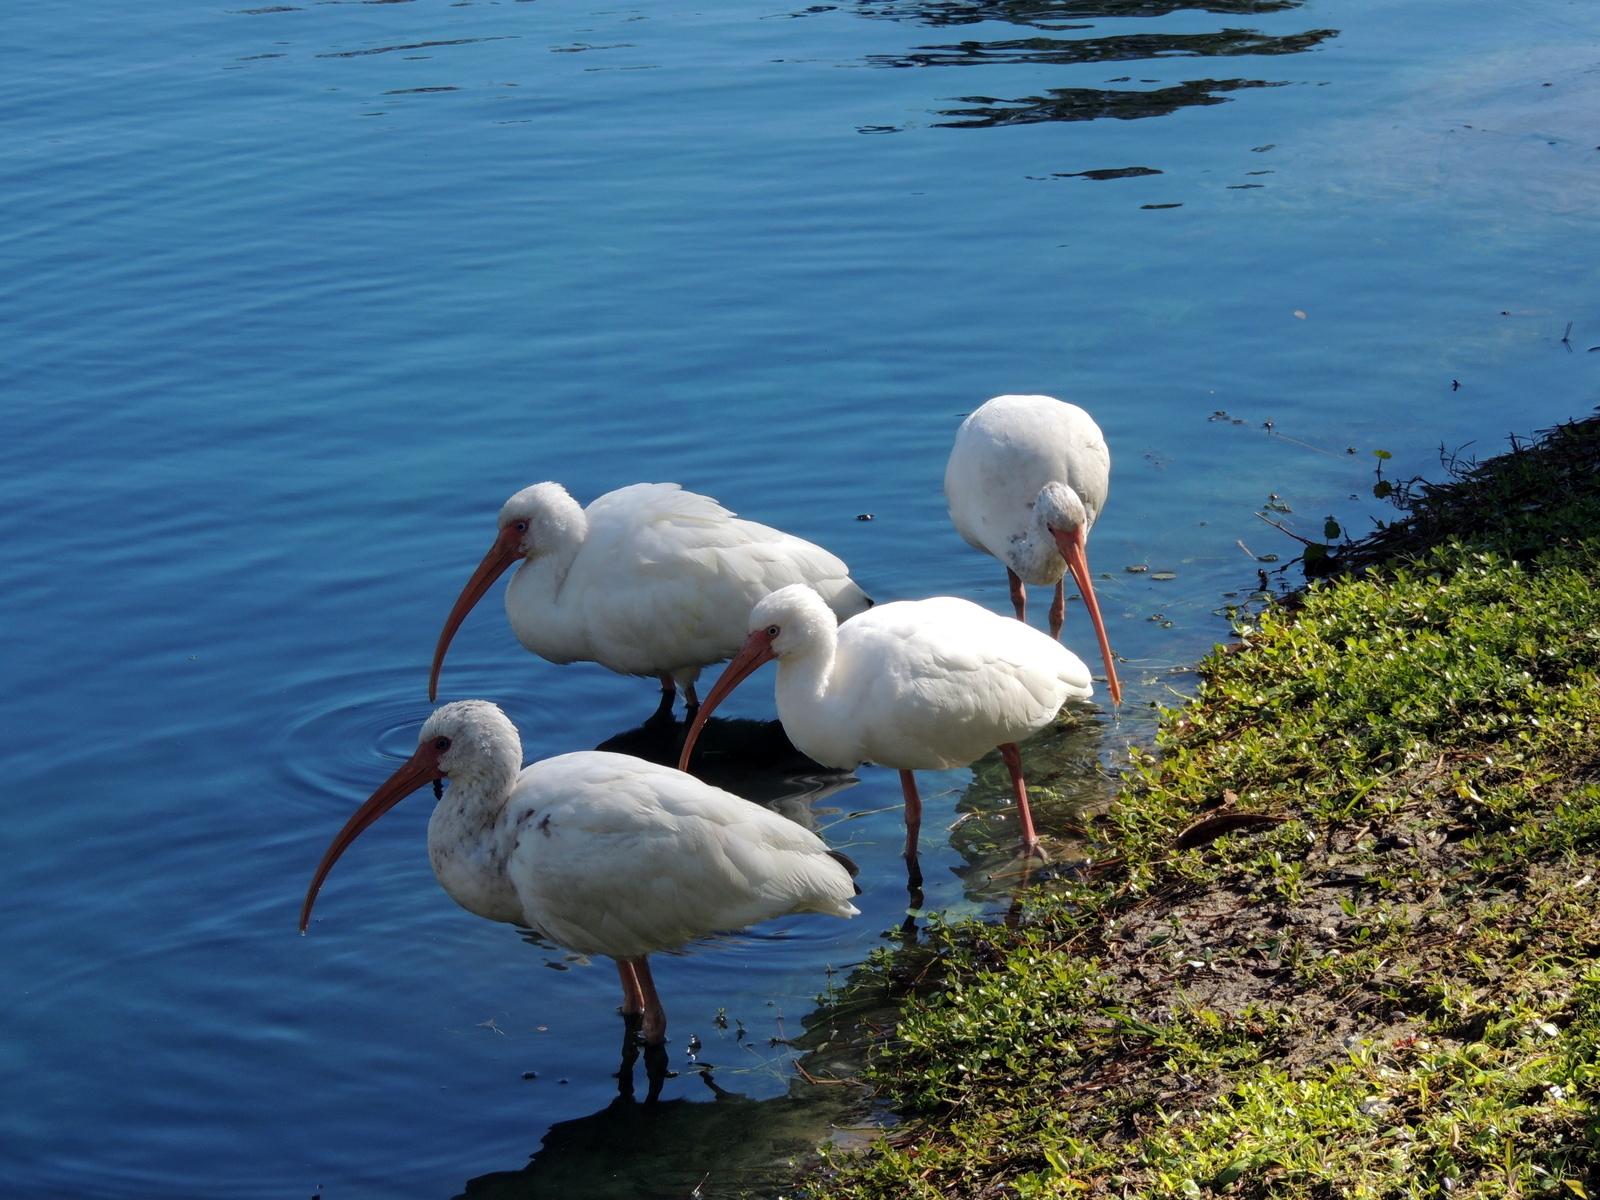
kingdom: Animalia
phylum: Chordata
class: Aves
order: Pelecaniformes
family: Threskiornithidae
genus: Eudocimus
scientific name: Eudocimus albus
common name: White ibis
